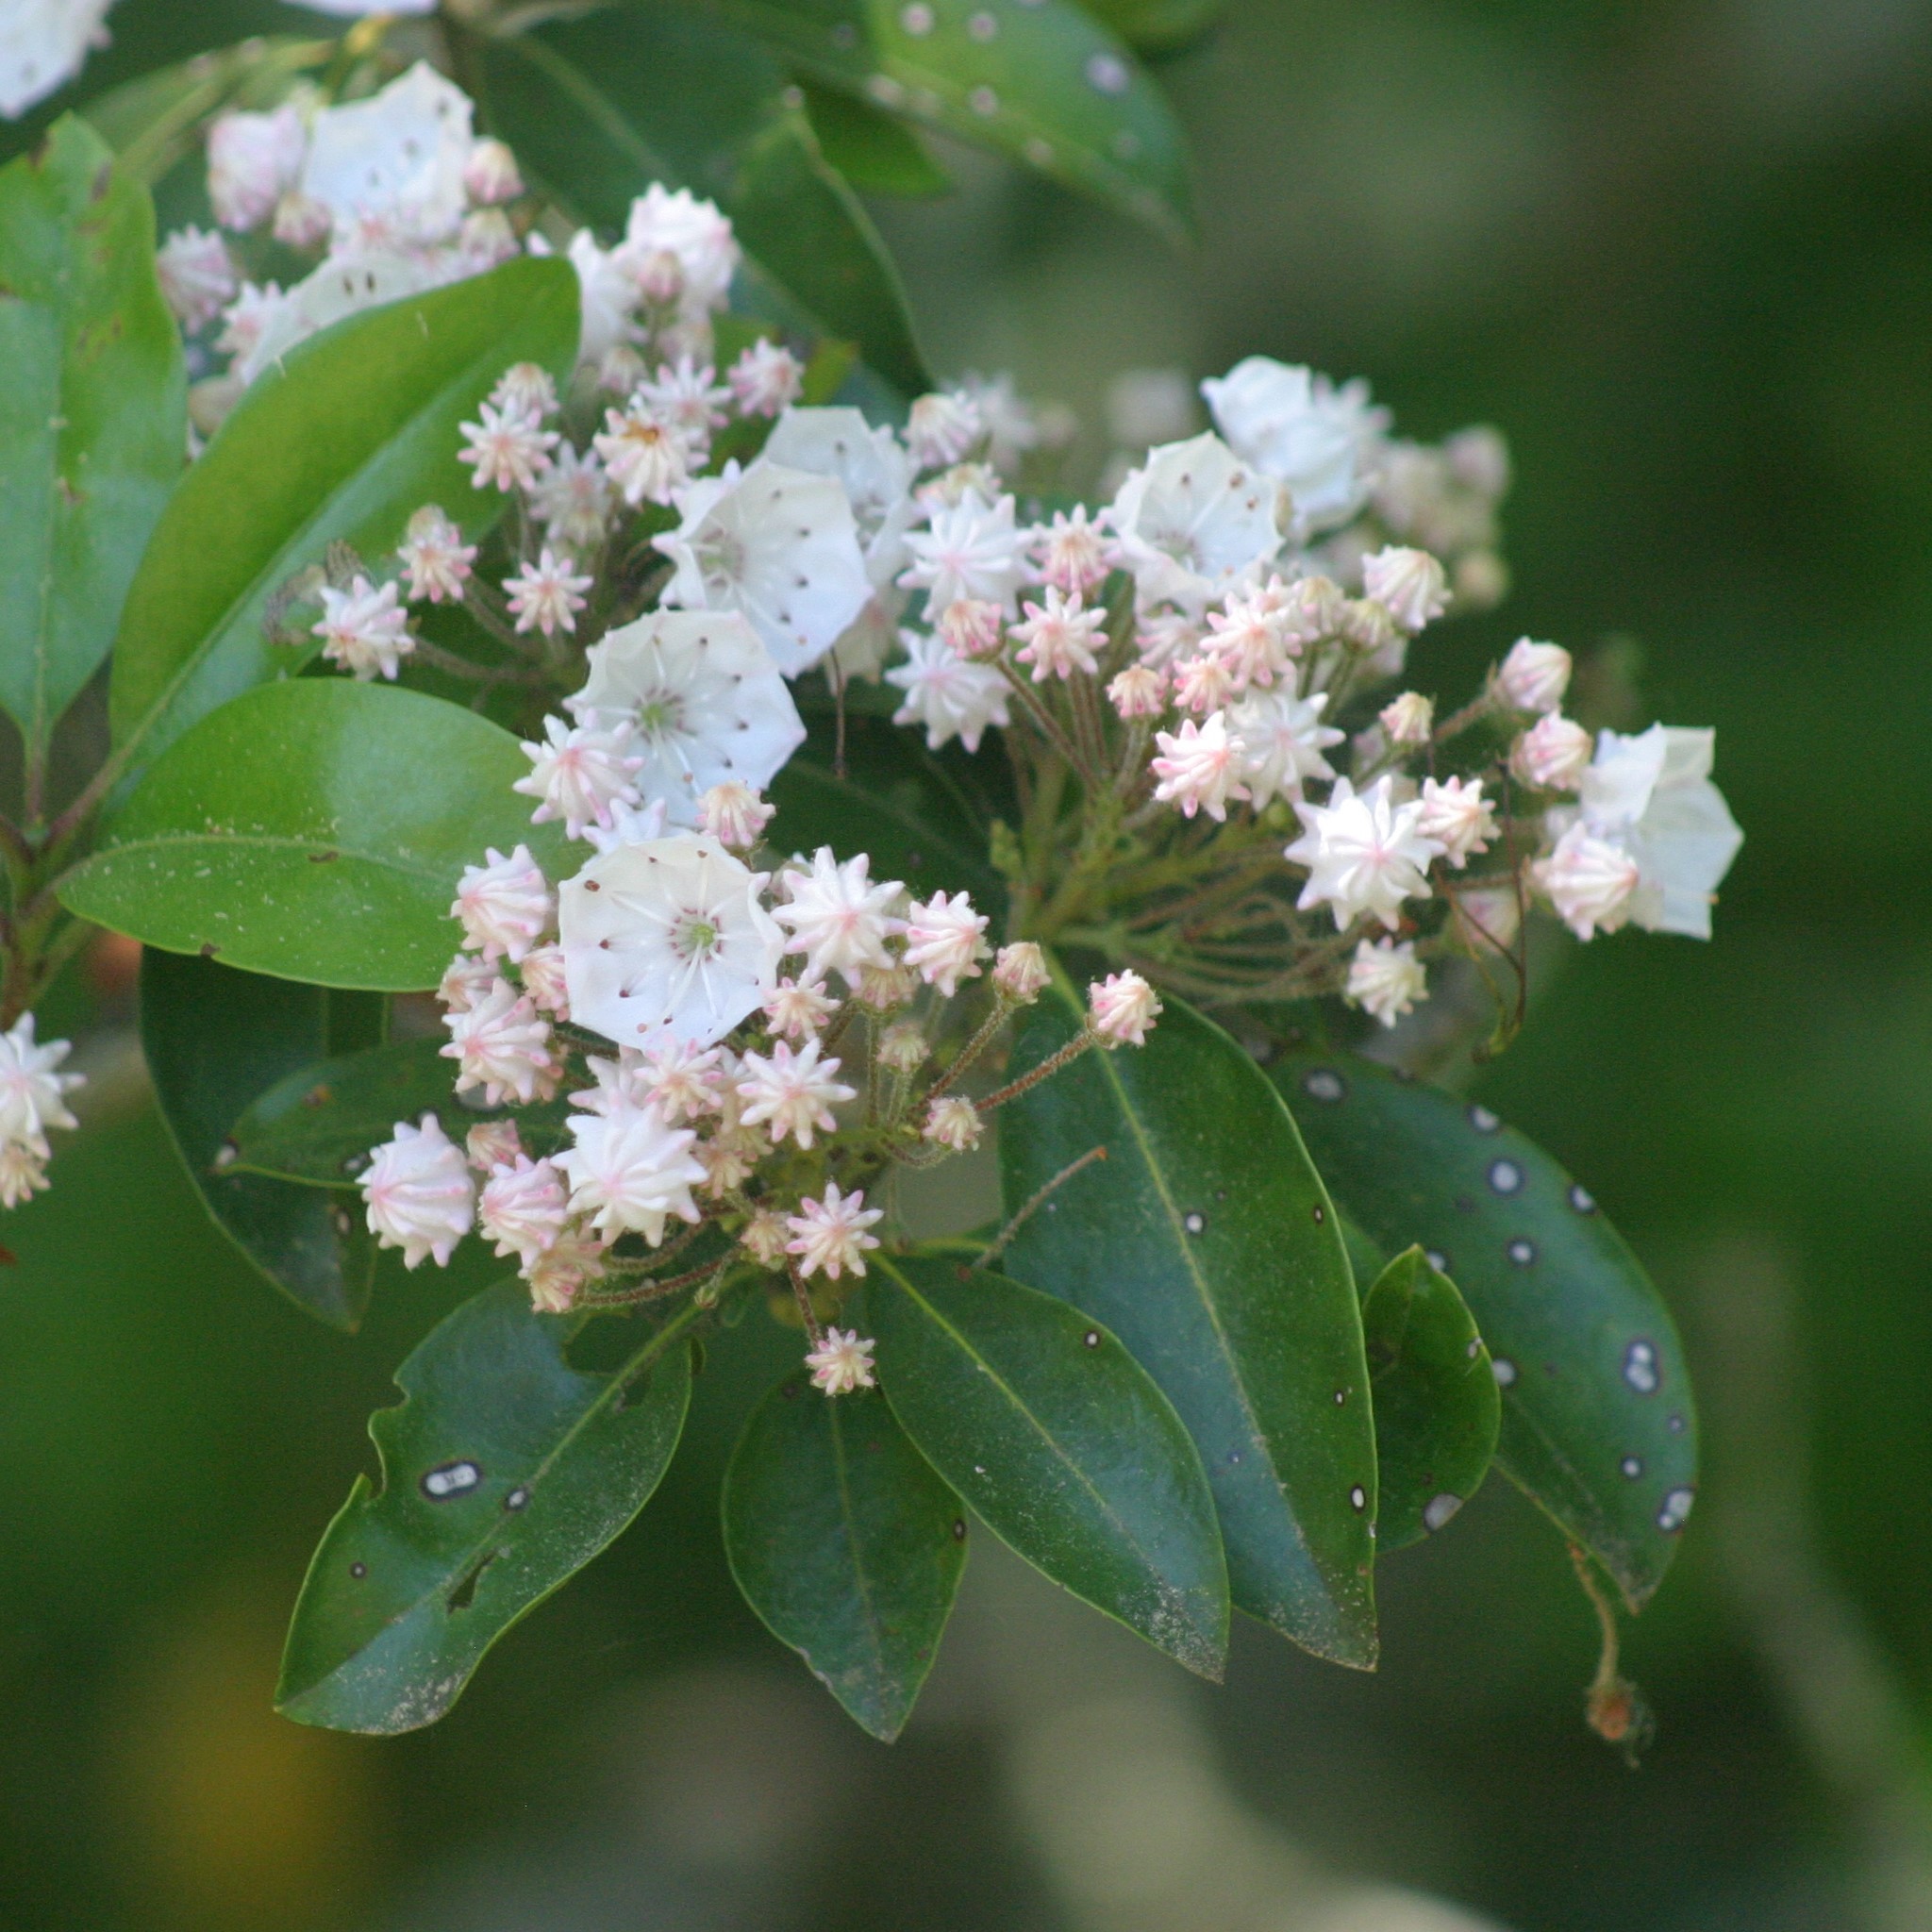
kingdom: Plantae
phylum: Tracheophyta
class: Magnoliopsida
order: Ericales
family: Ericaceae
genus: Kalmia
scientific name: Kalmia latifolia
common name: Mountain-laurel
